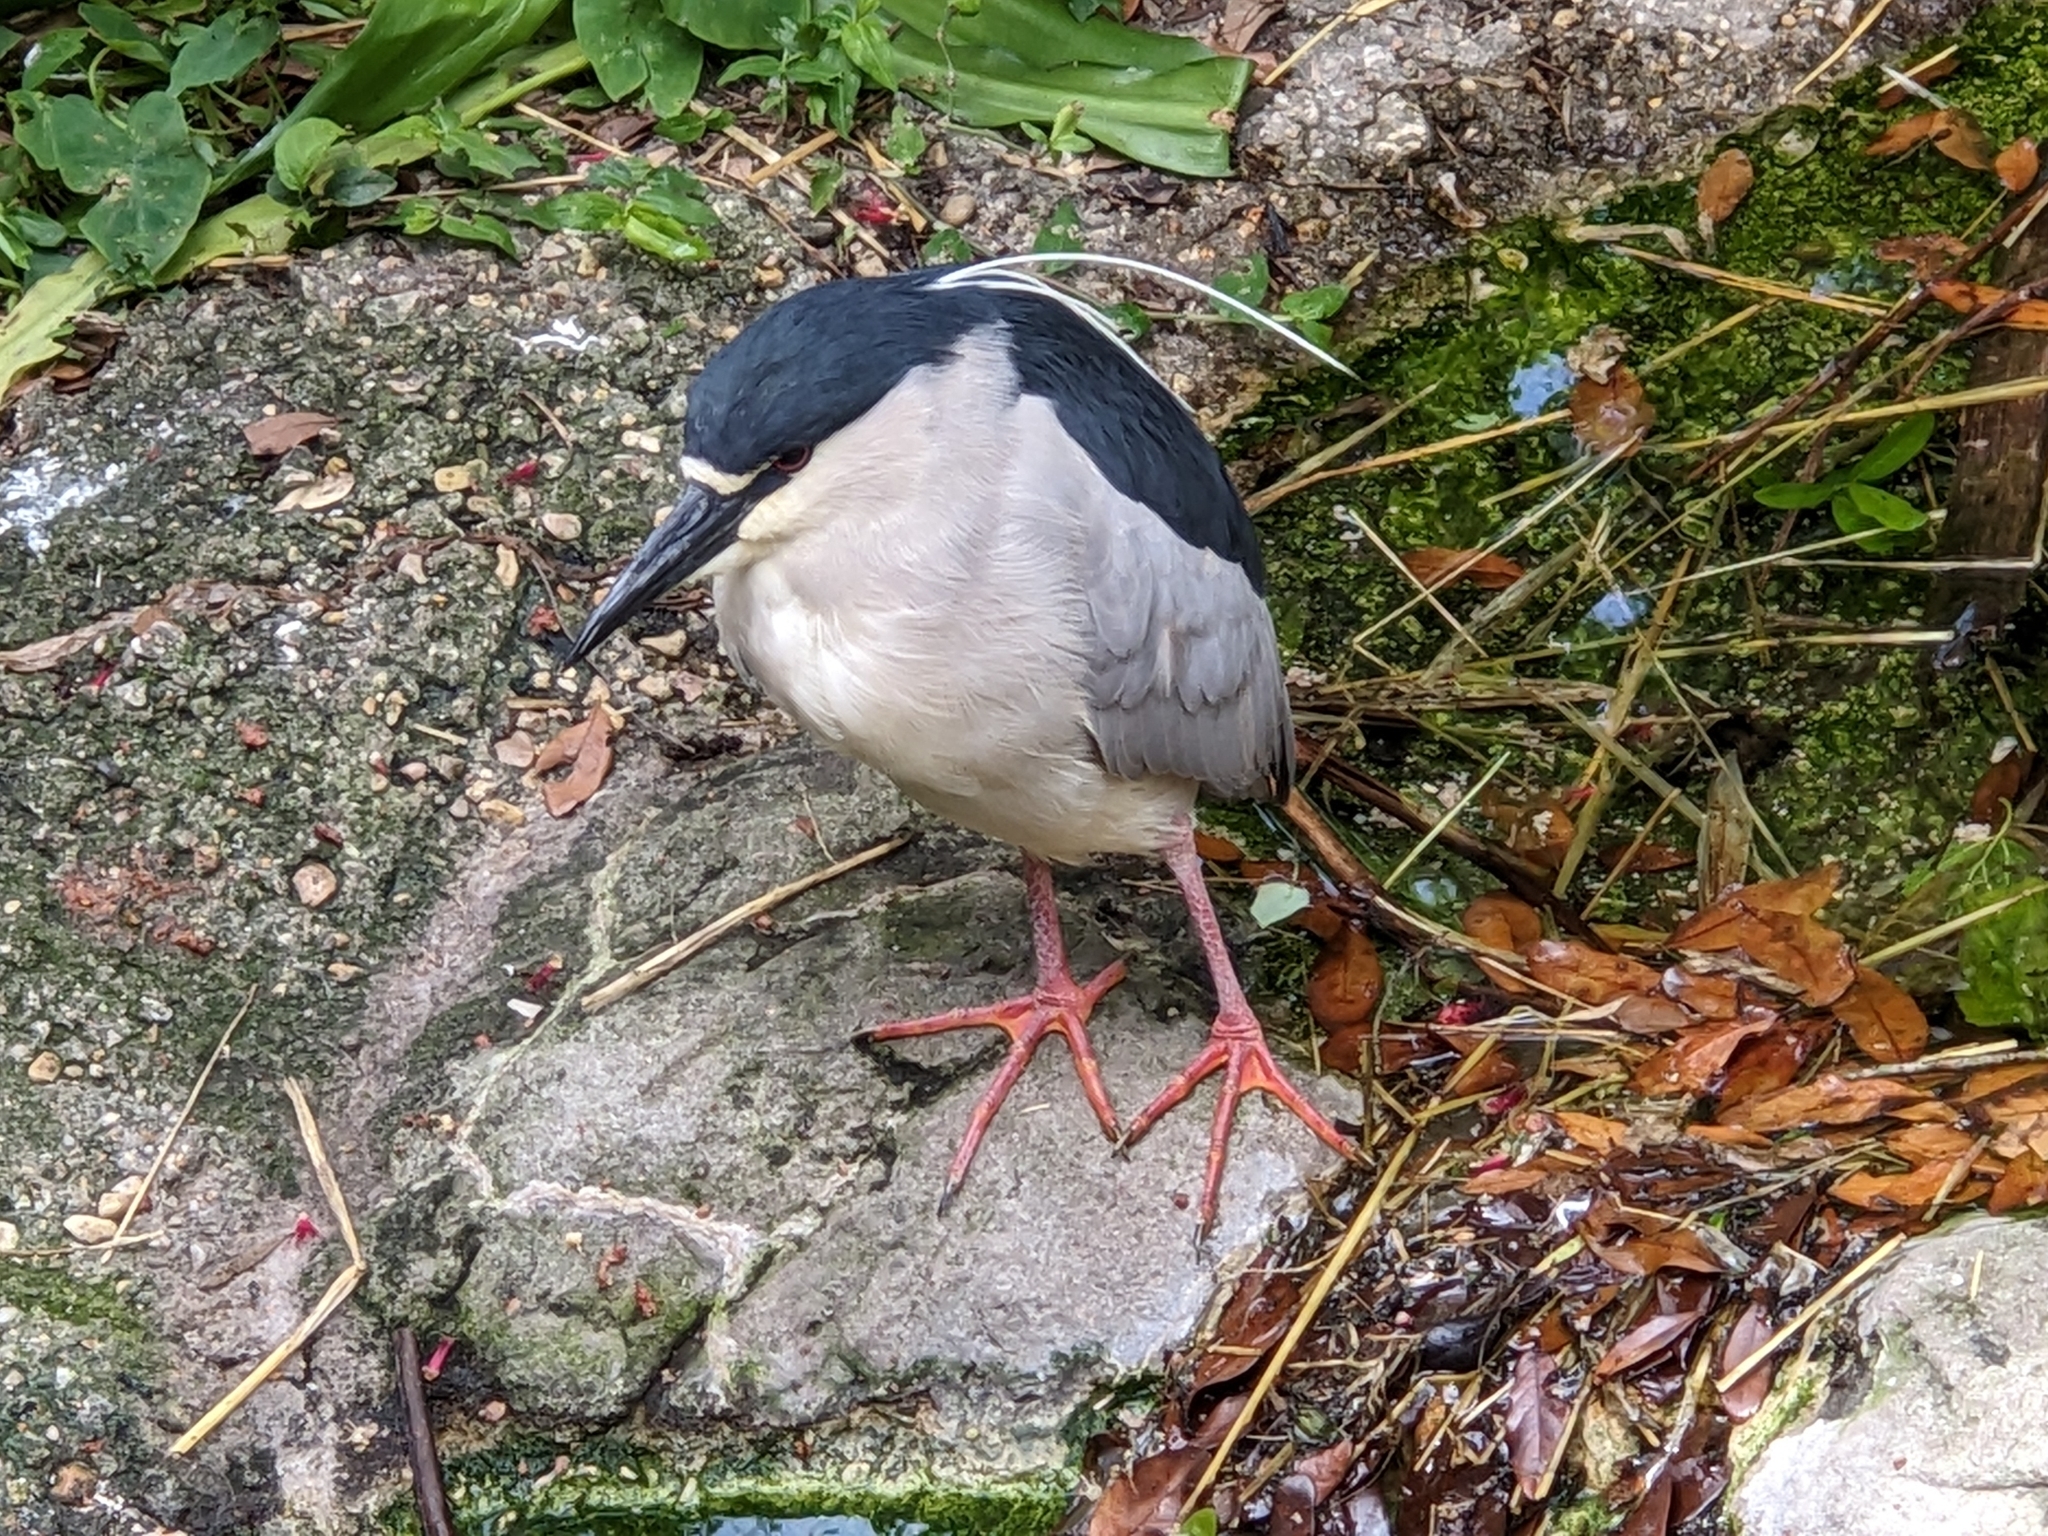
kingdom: Animalia
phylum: Chordata
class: Aves
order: Pelecaniformes
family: Ardeidae
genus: Nycticorax
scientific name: Nycticorax nycticorax
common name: Black-crowned night heron
